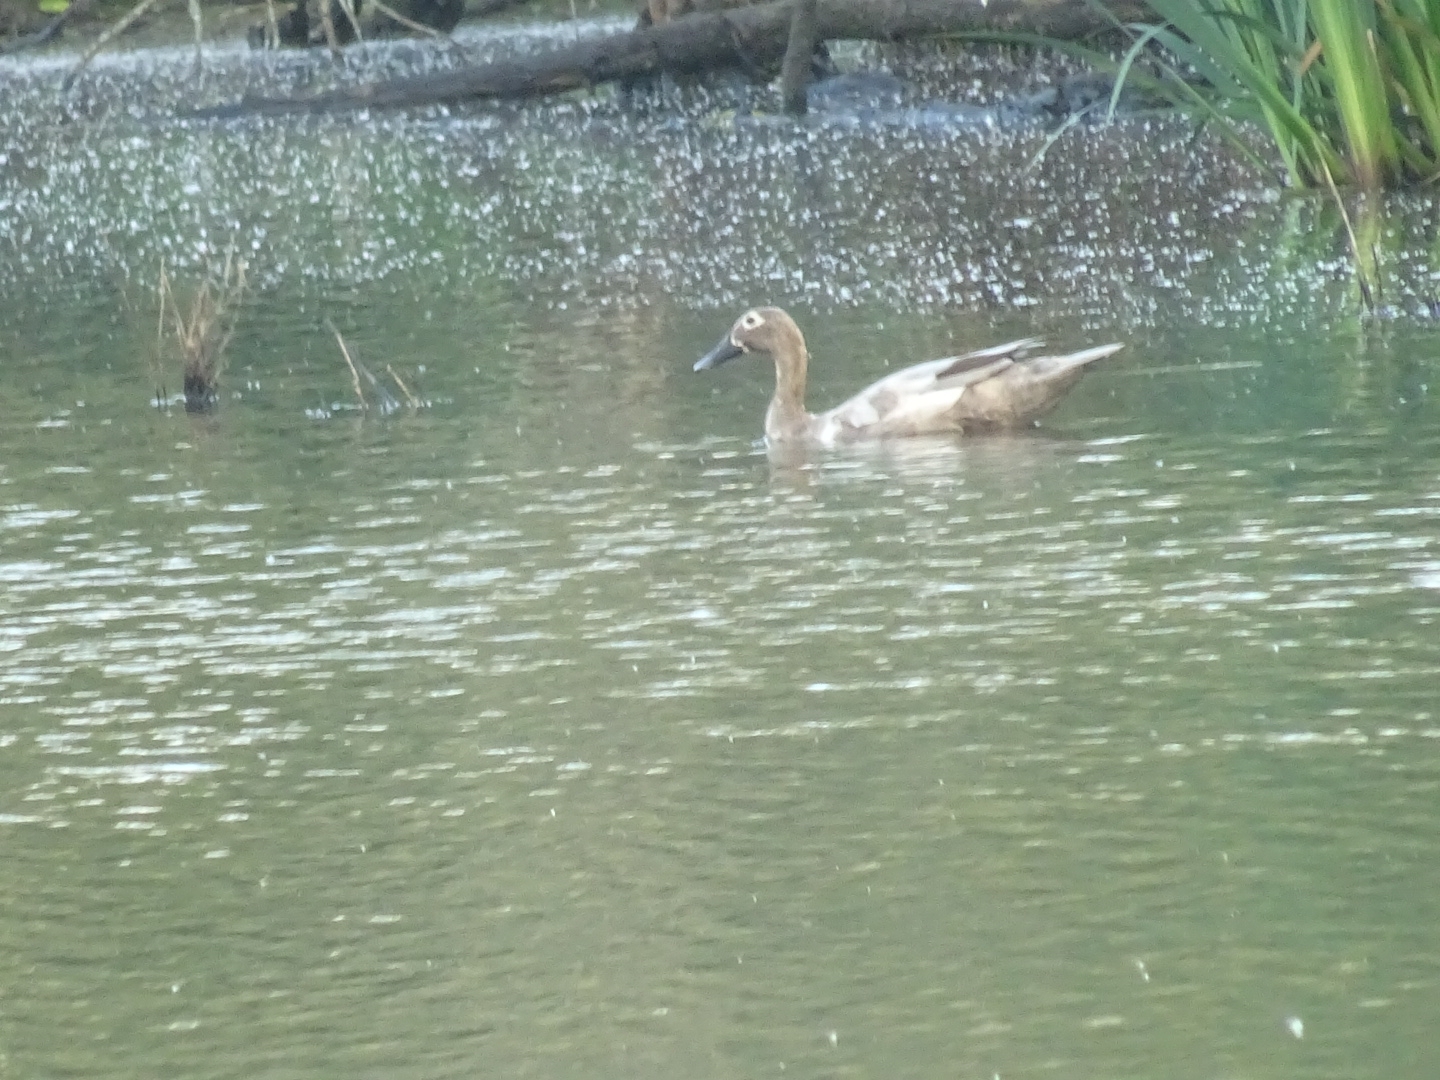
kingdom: Animalia
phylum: Chordata
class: Aves
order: Anseriformes
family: Anatidae
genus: Anas
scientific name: Anas platyrhynchos
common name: Mallard
